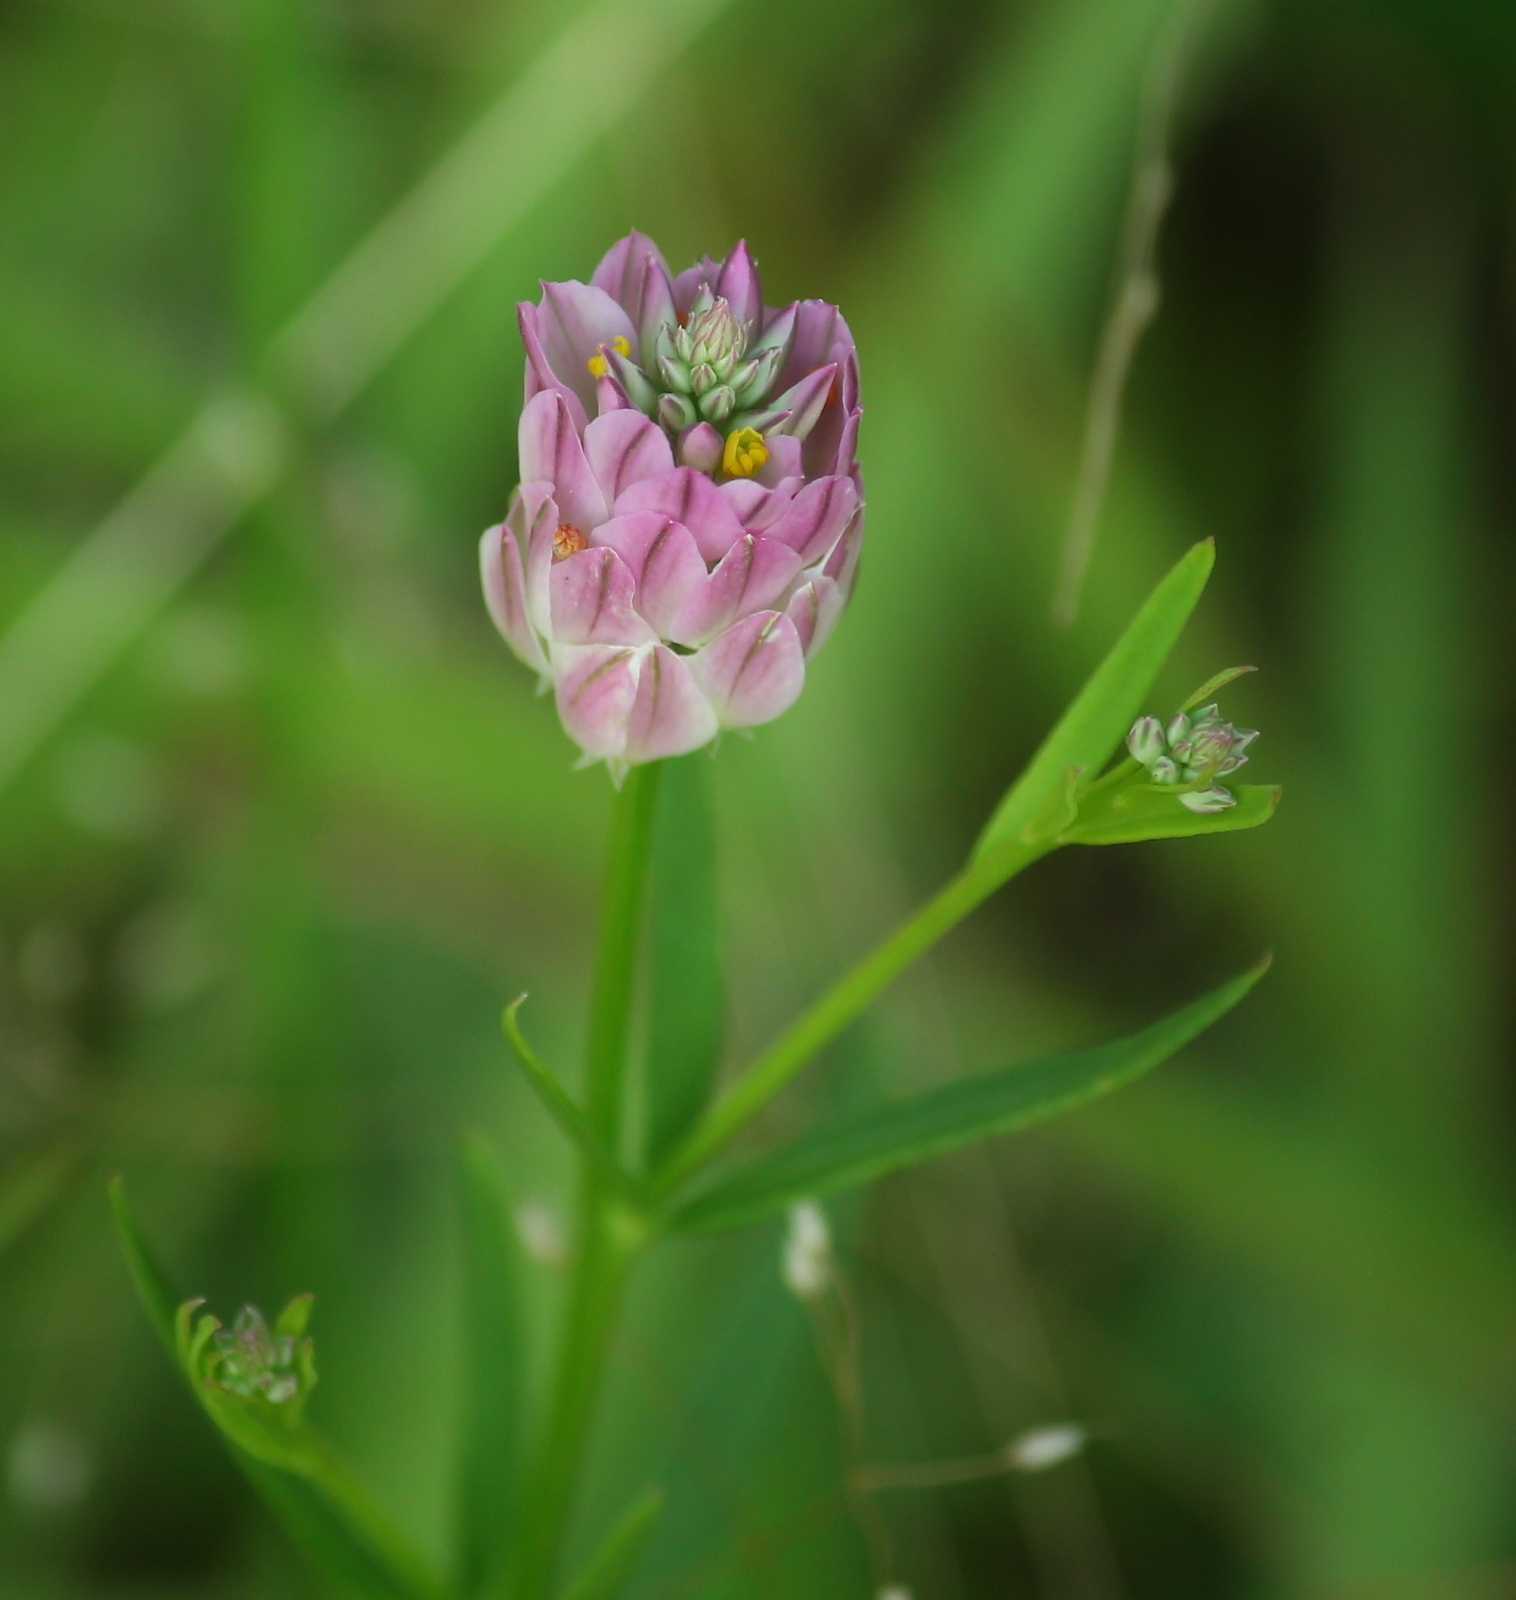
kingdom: Plantae
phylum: Tracheophyta
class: Magnoliopsida
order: Fabales
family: Polygalaceae
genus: Polygala
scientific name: Polygala sanguinea
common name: Blood milkwort
